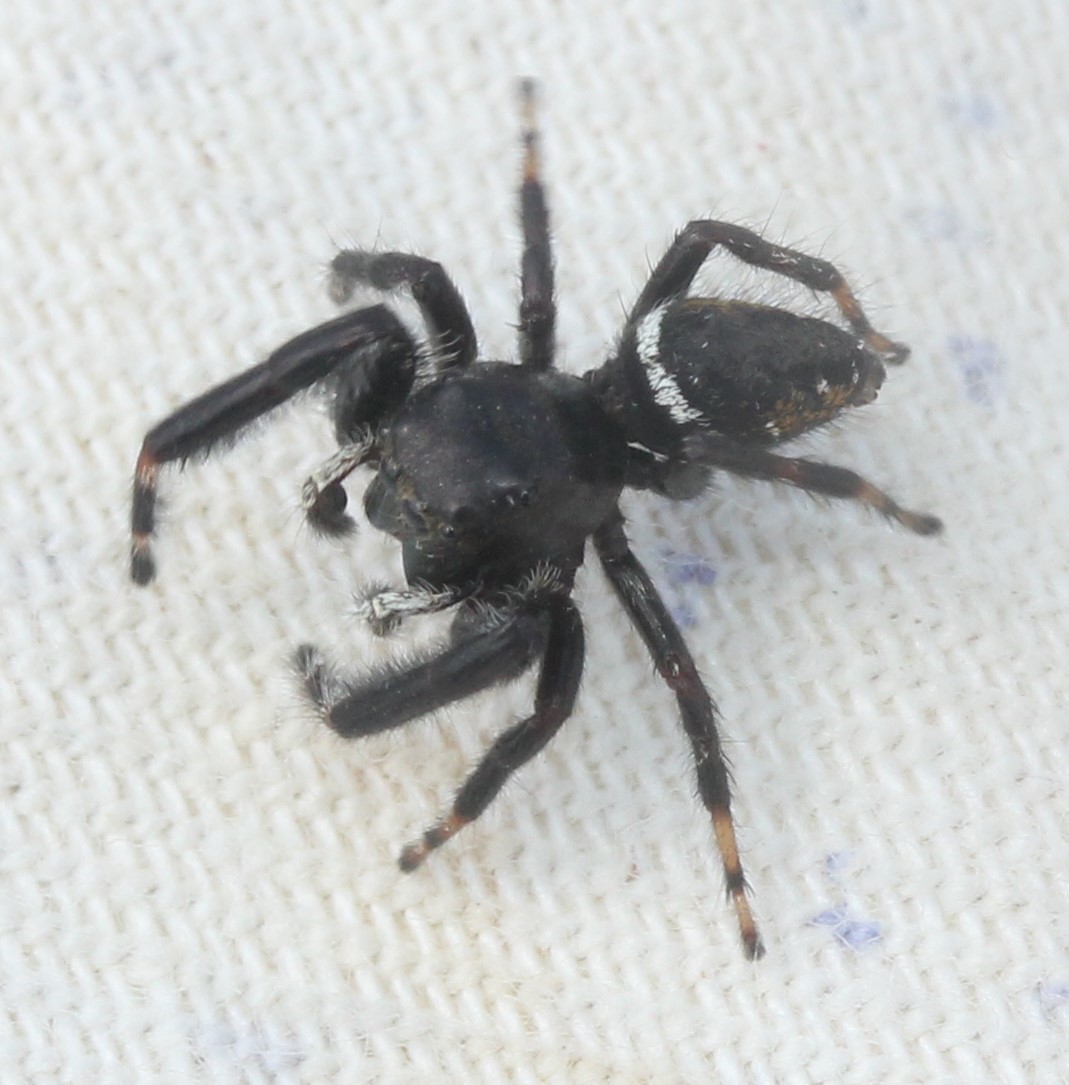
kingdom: Animalia
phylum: Arthropoda
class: Arachnida
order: Araneae
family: Salticidae
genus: Phidippus
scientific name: Phidippus clarus
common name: Brilliant jumping spider
